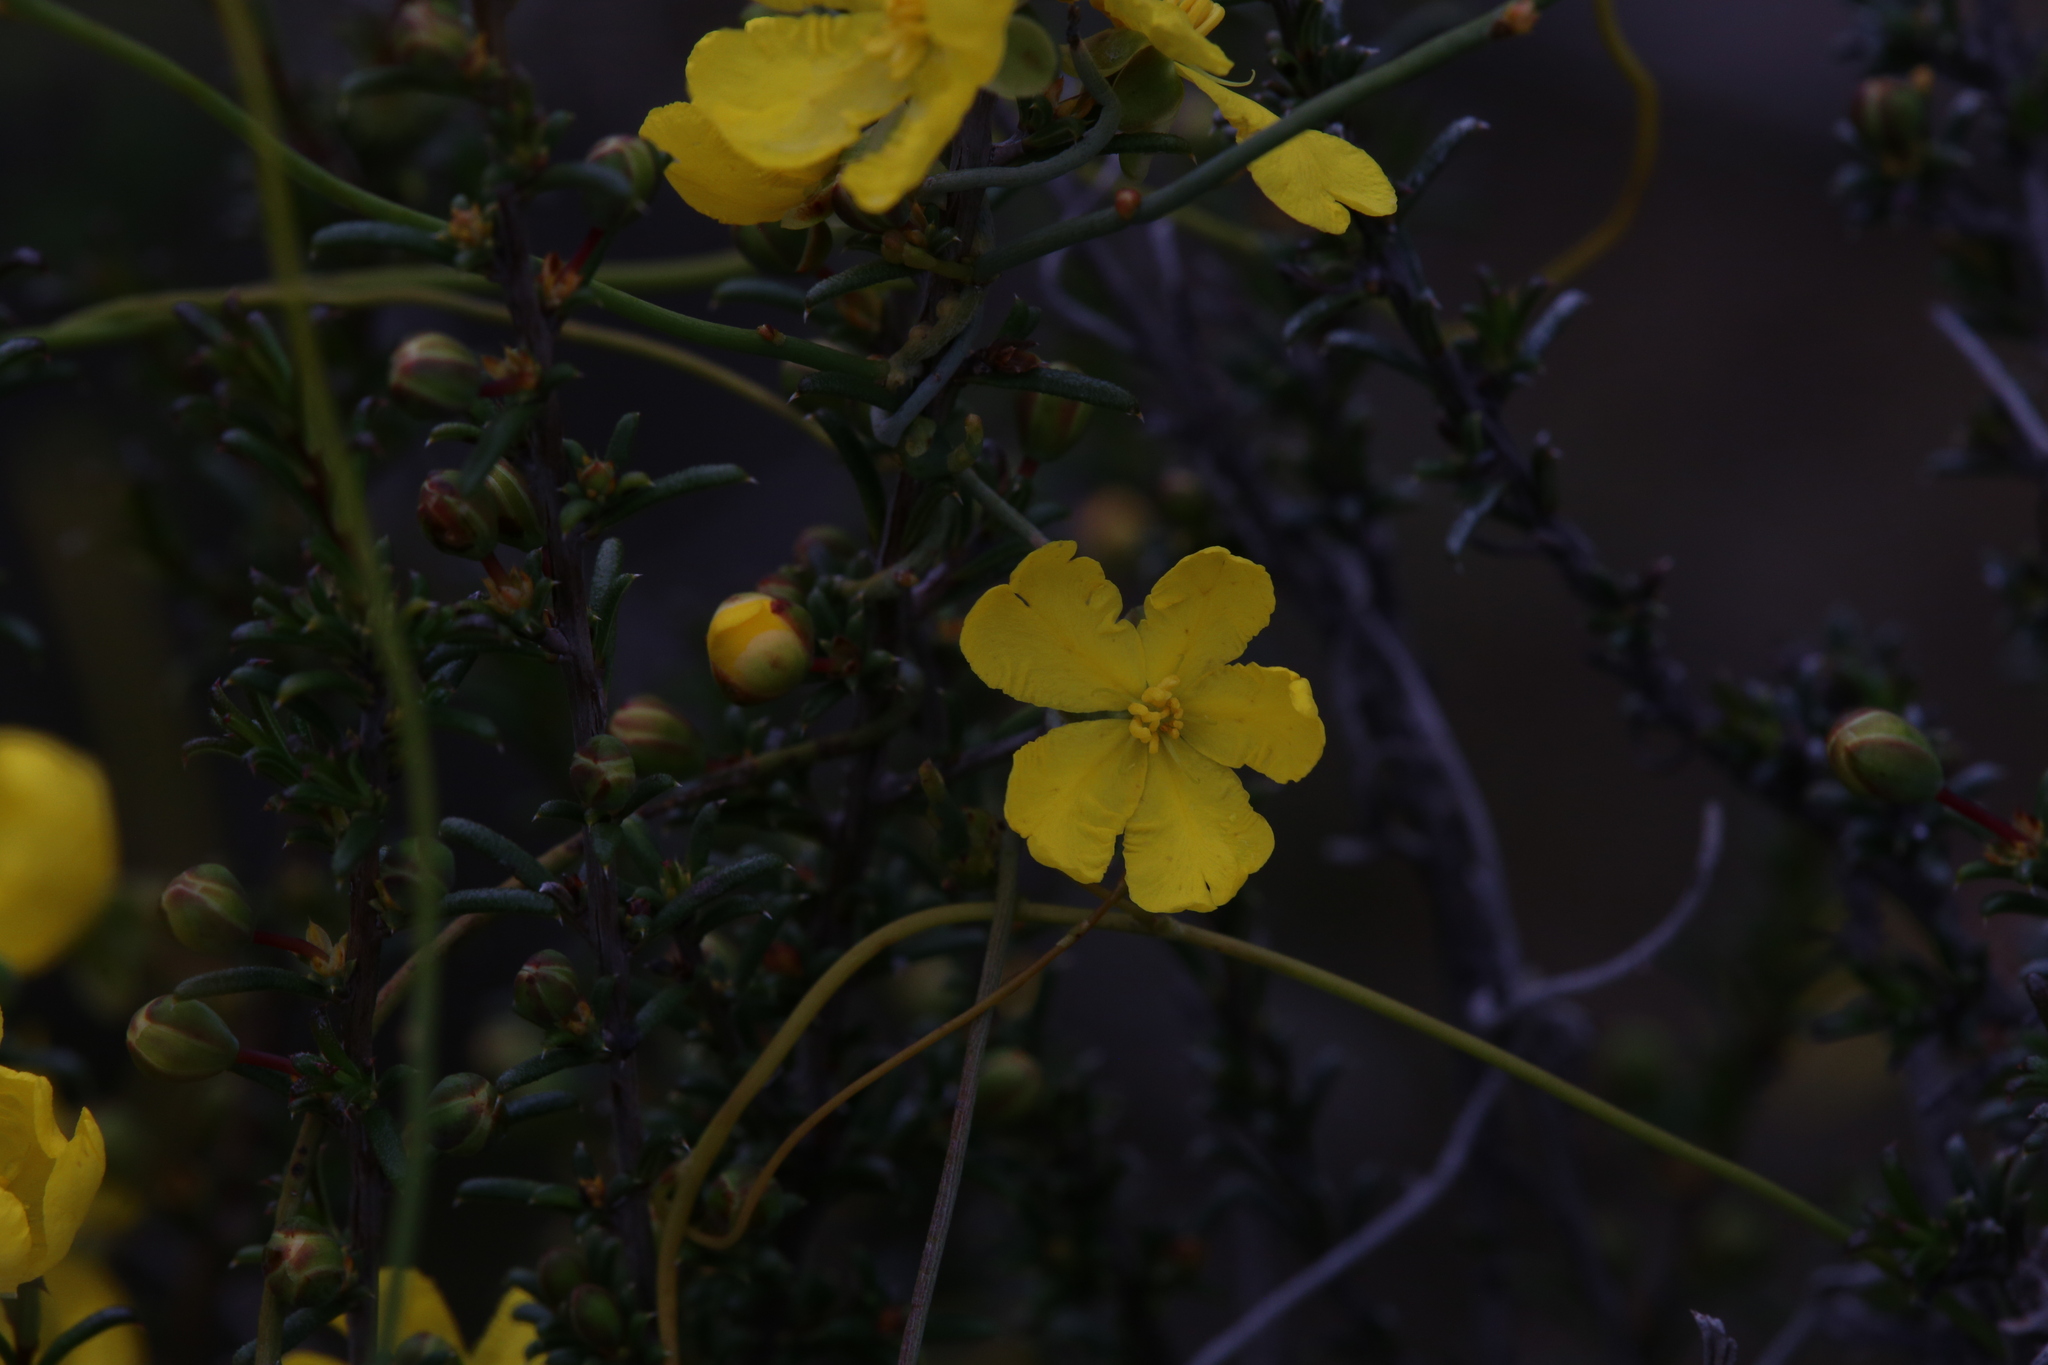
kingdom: Plantae
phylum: Tracheophyta
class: Magnoliopsida
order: Dilleniales
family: Dilleniaceae
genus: Hibbertia
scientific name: Hibbertia rostellata
